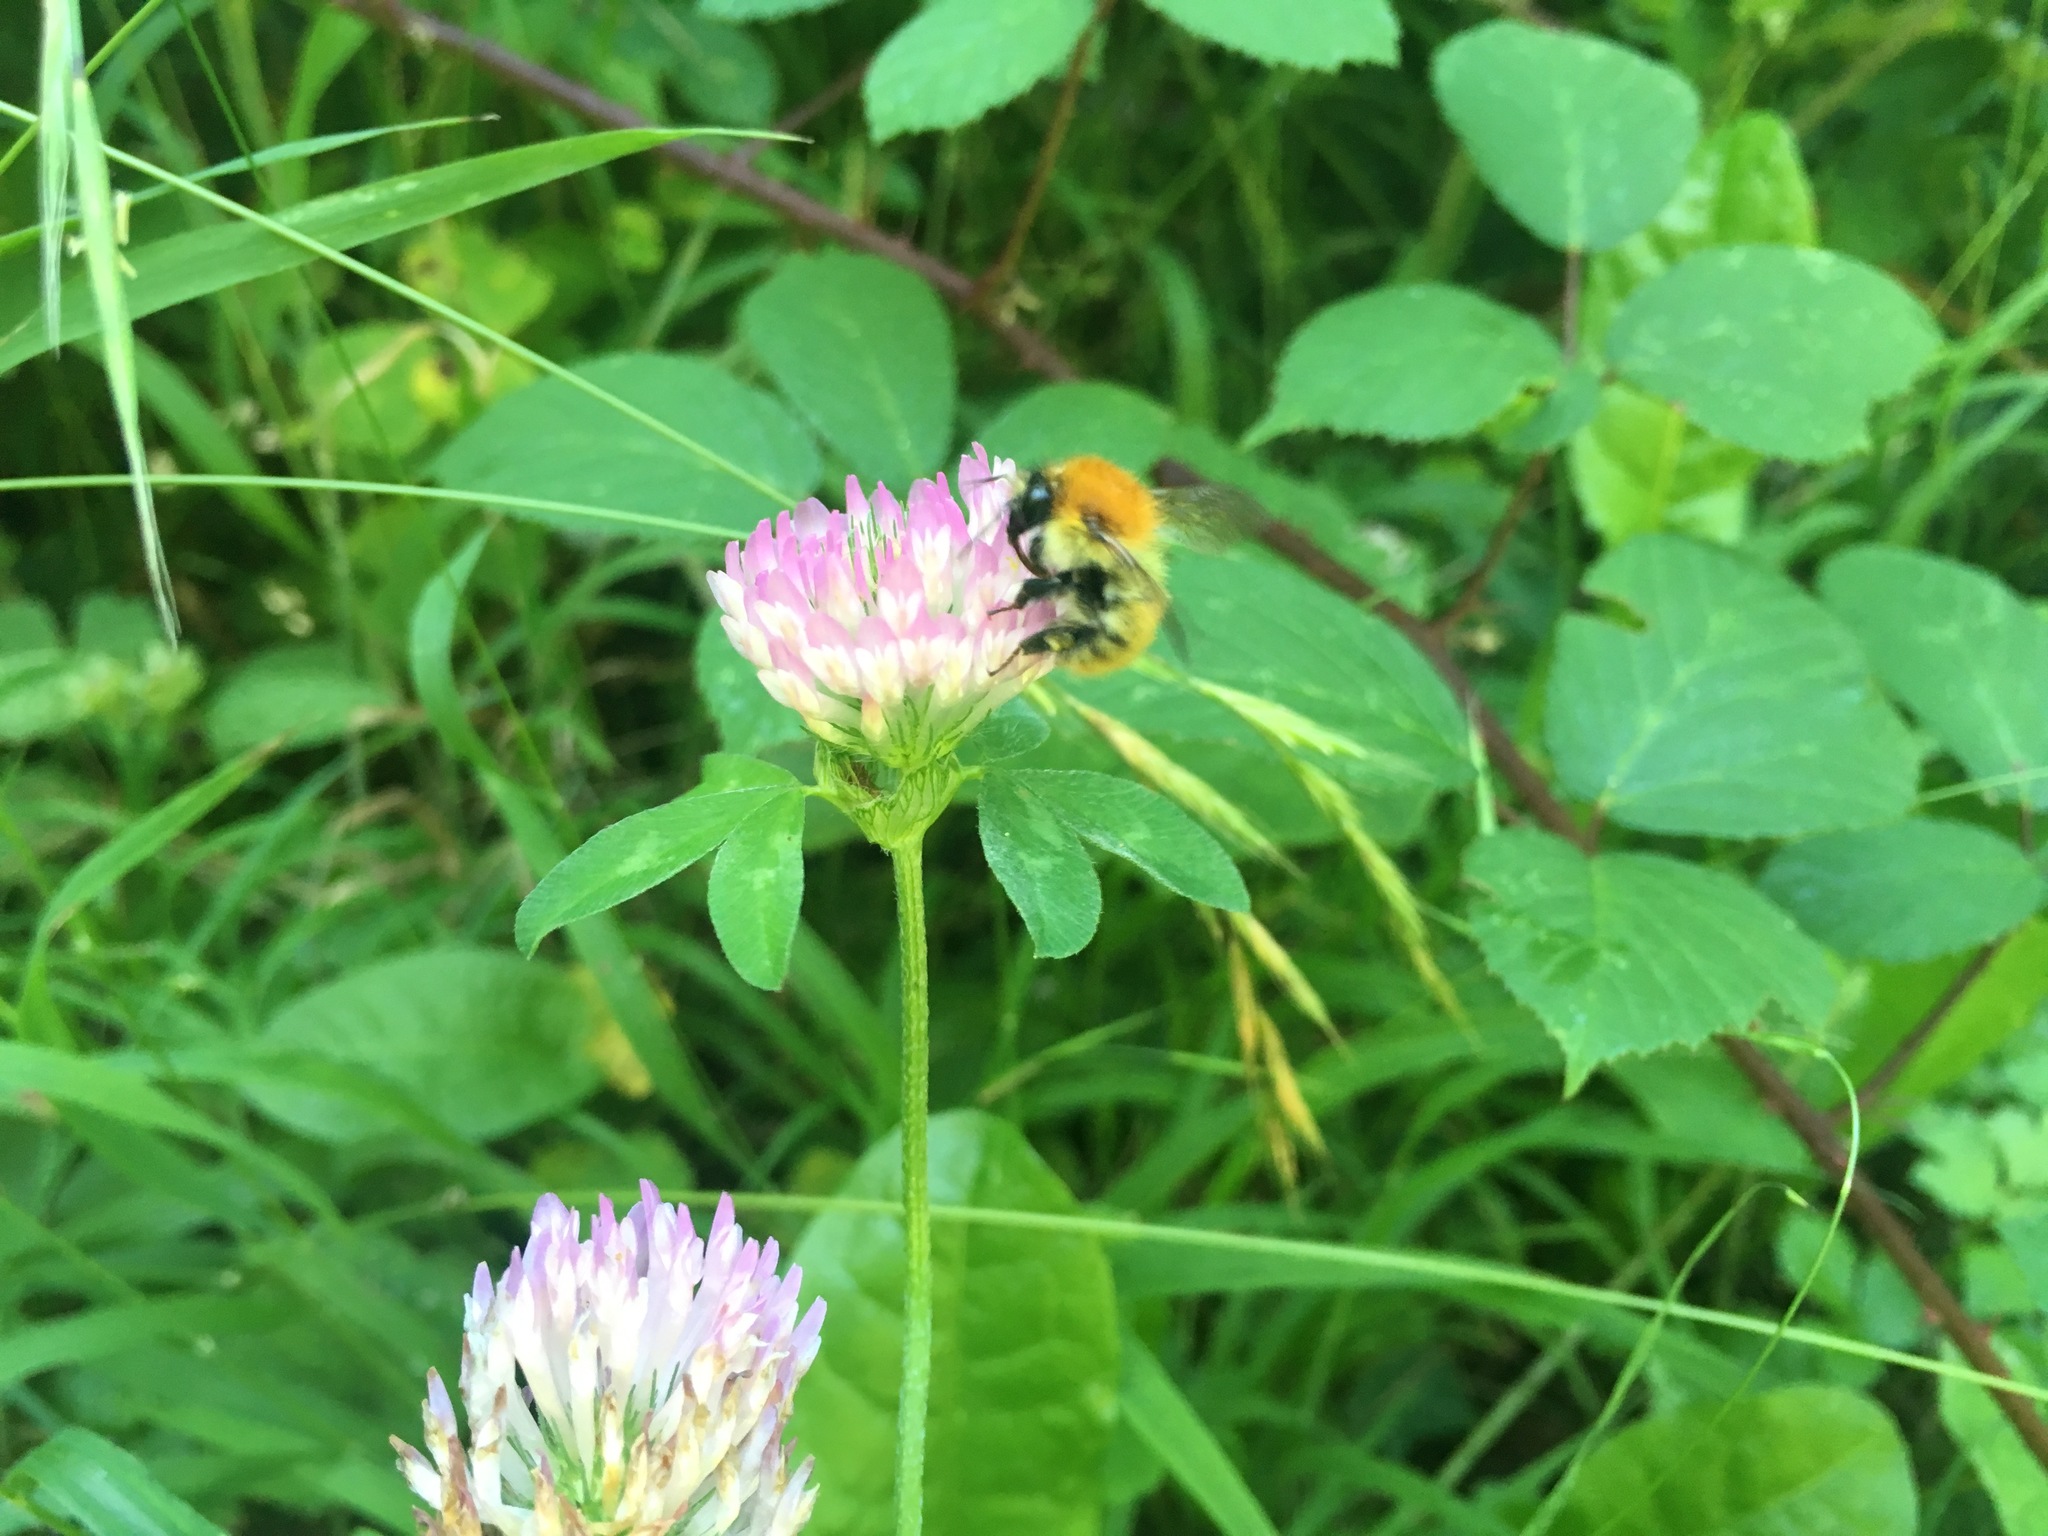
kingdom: Animalia
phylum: Arthropoda
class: Insecta
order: Hymenoptera
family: Apidae
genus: Bombus
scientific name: Bombus pascuorum
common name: Common carder bee
